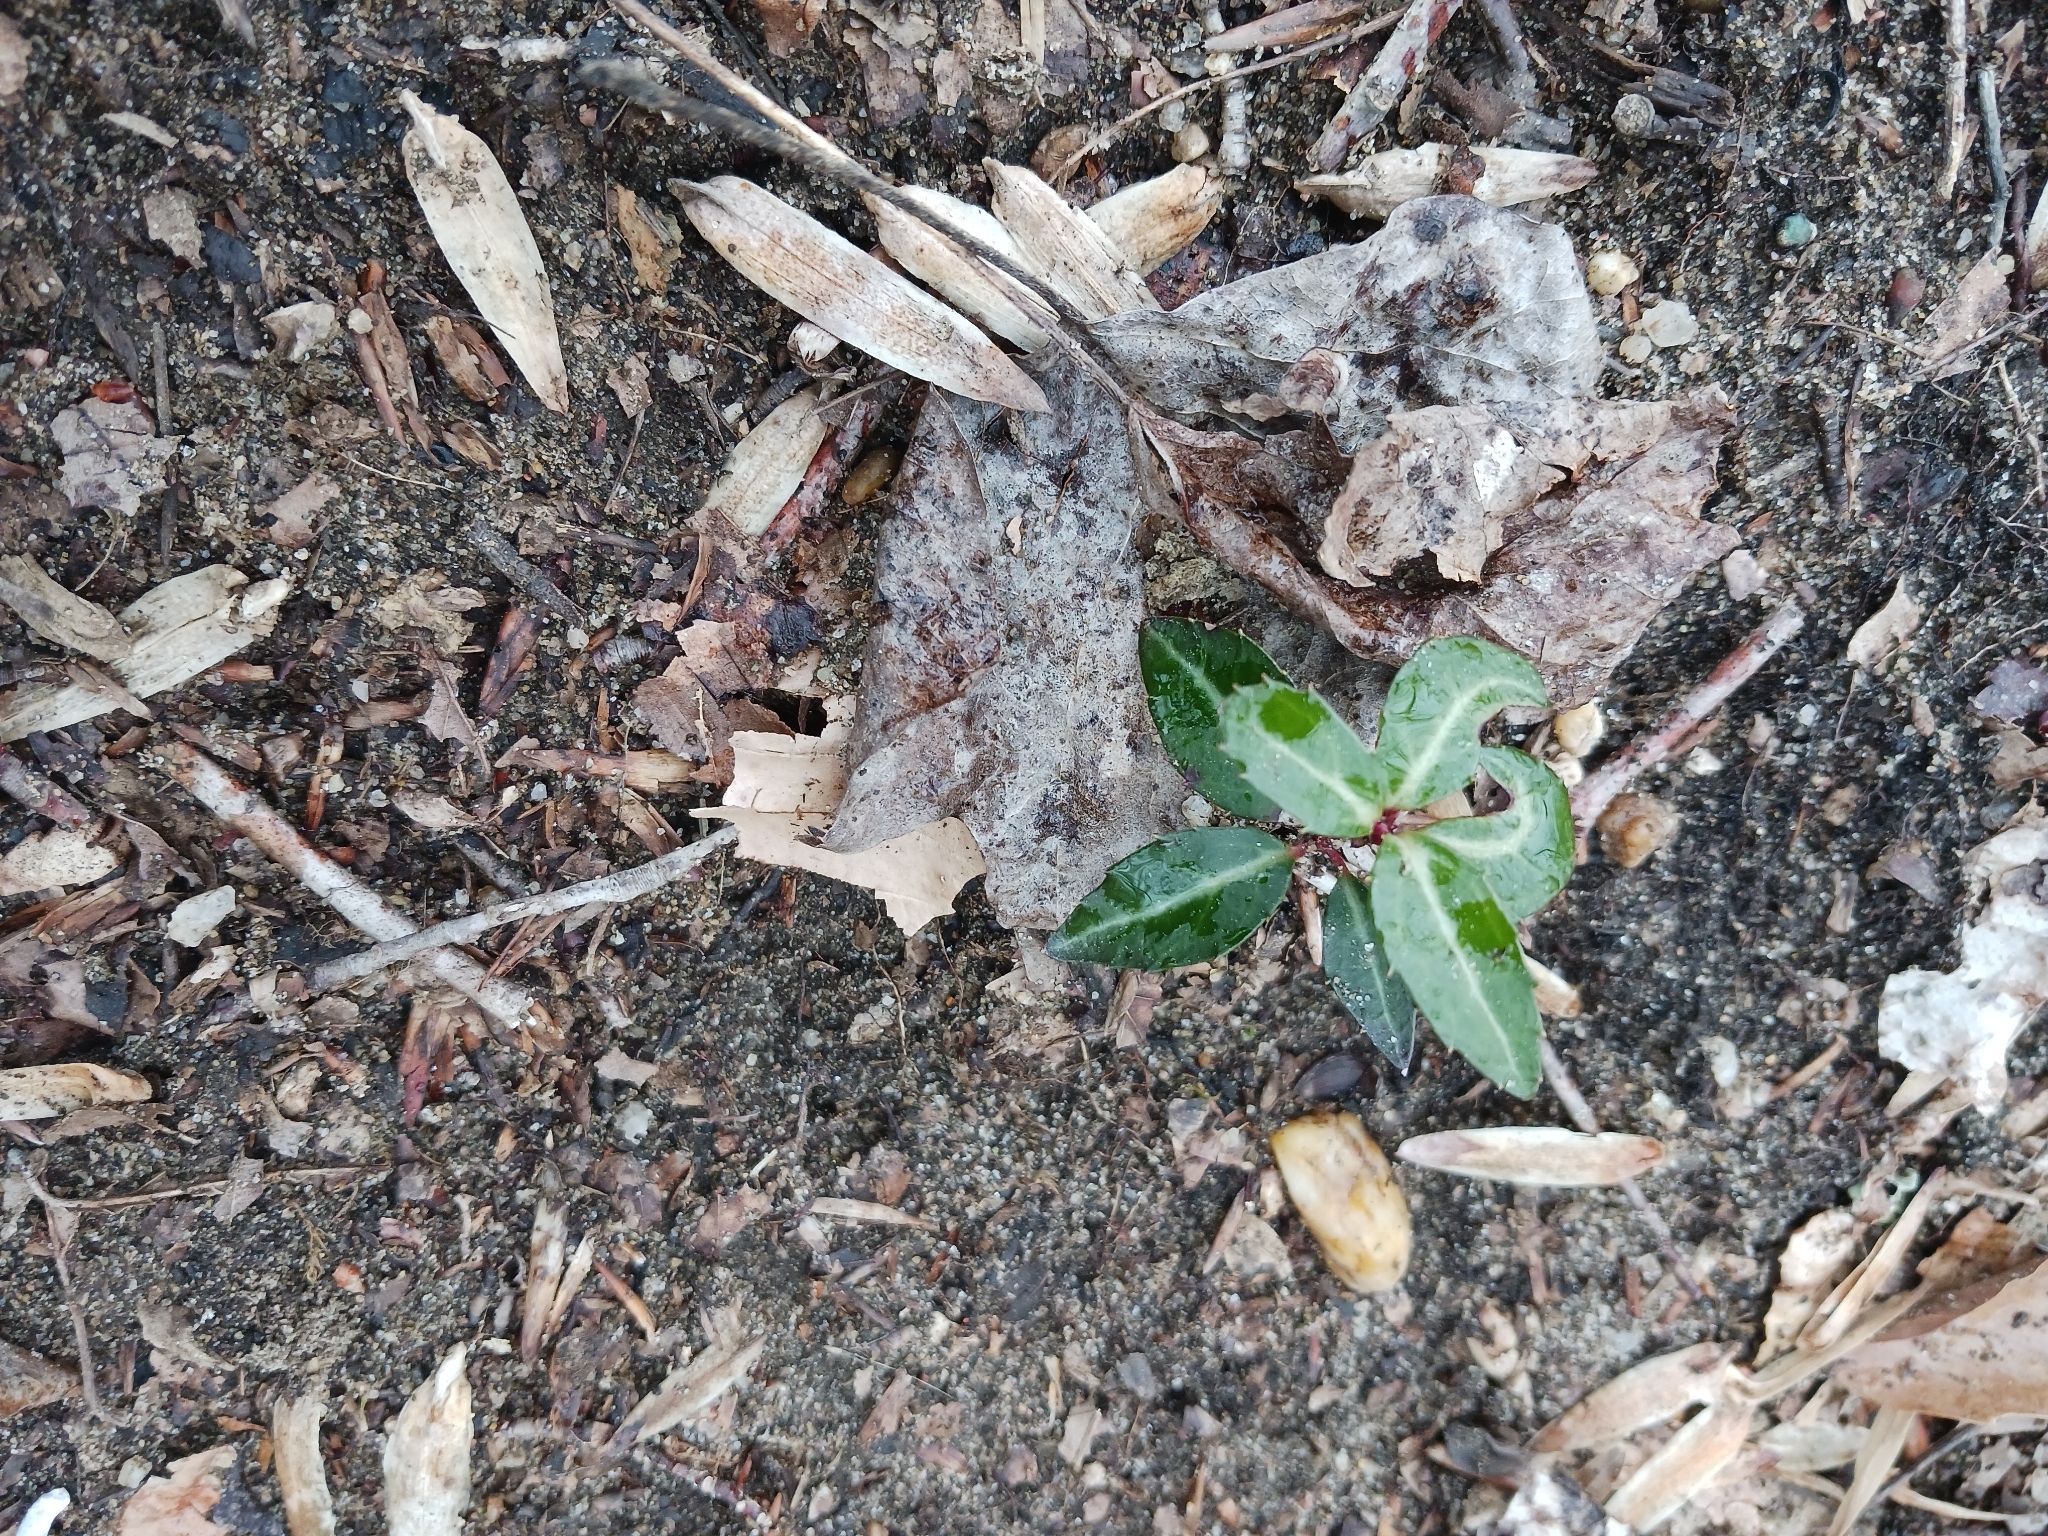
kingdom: Plantae
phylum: Tracheophyta
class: Magnoliopsida
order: Ericales
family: Ericaceae
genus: Chimaphila
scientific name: Chimaphila maculata
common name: Spotted pipsissewa
